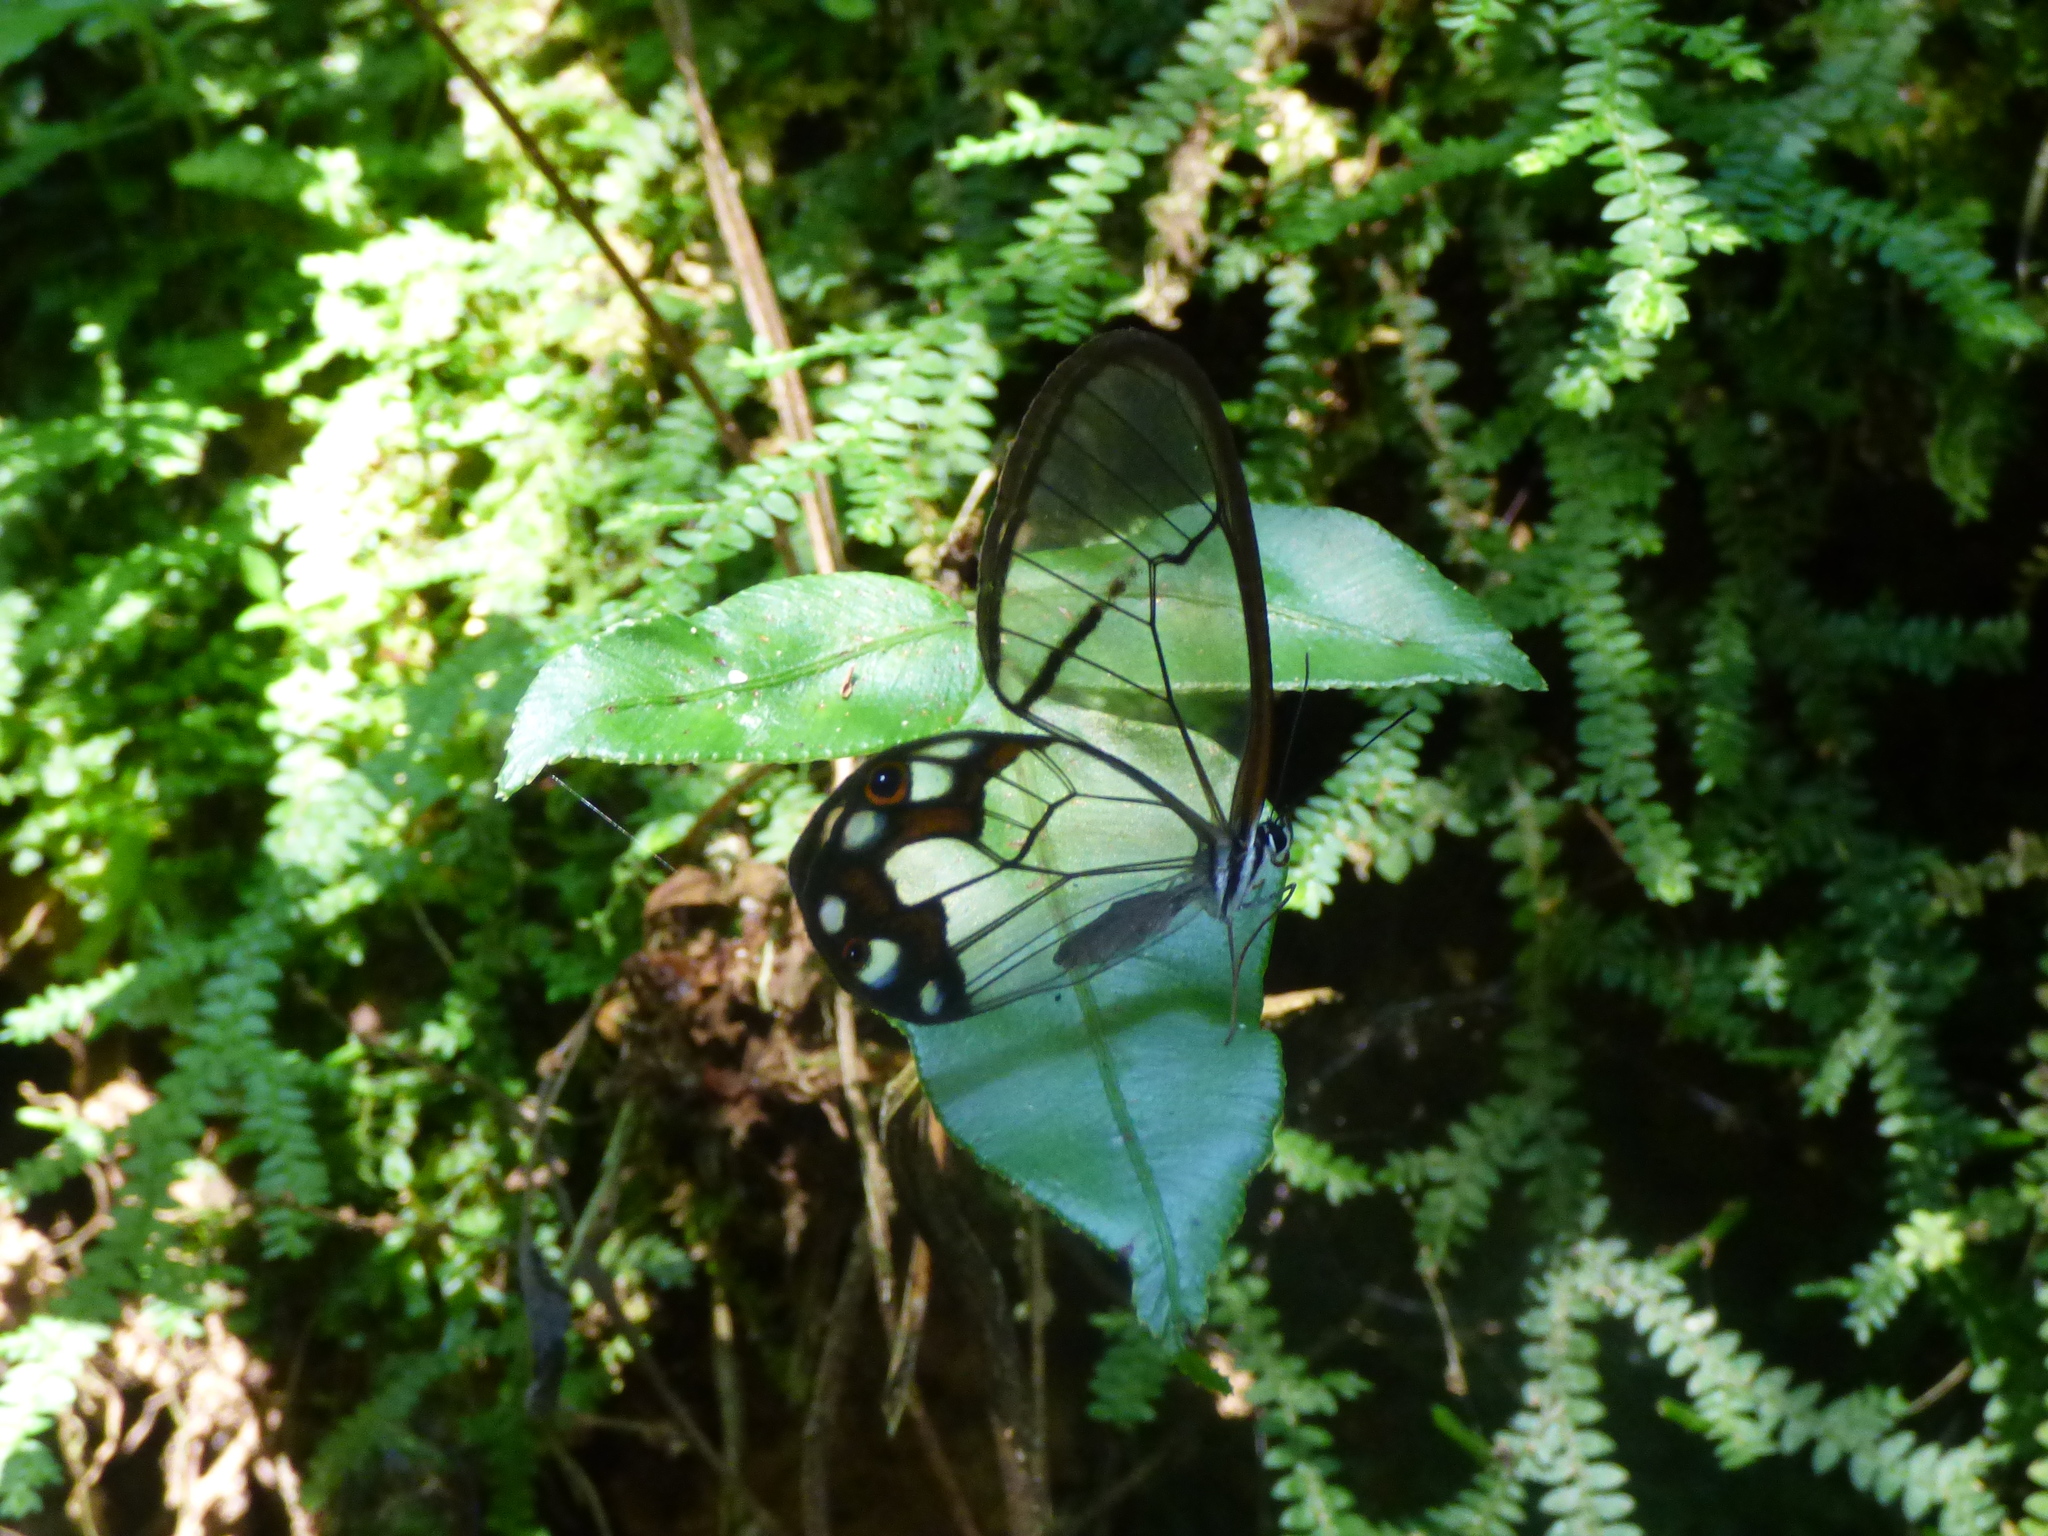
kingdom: Animalia
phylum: Arthropoda
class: Insecta
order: Lepidoptera
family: Nymphalidae
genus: Pseudohaetera
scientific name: Pseudohaetera hypaesia
